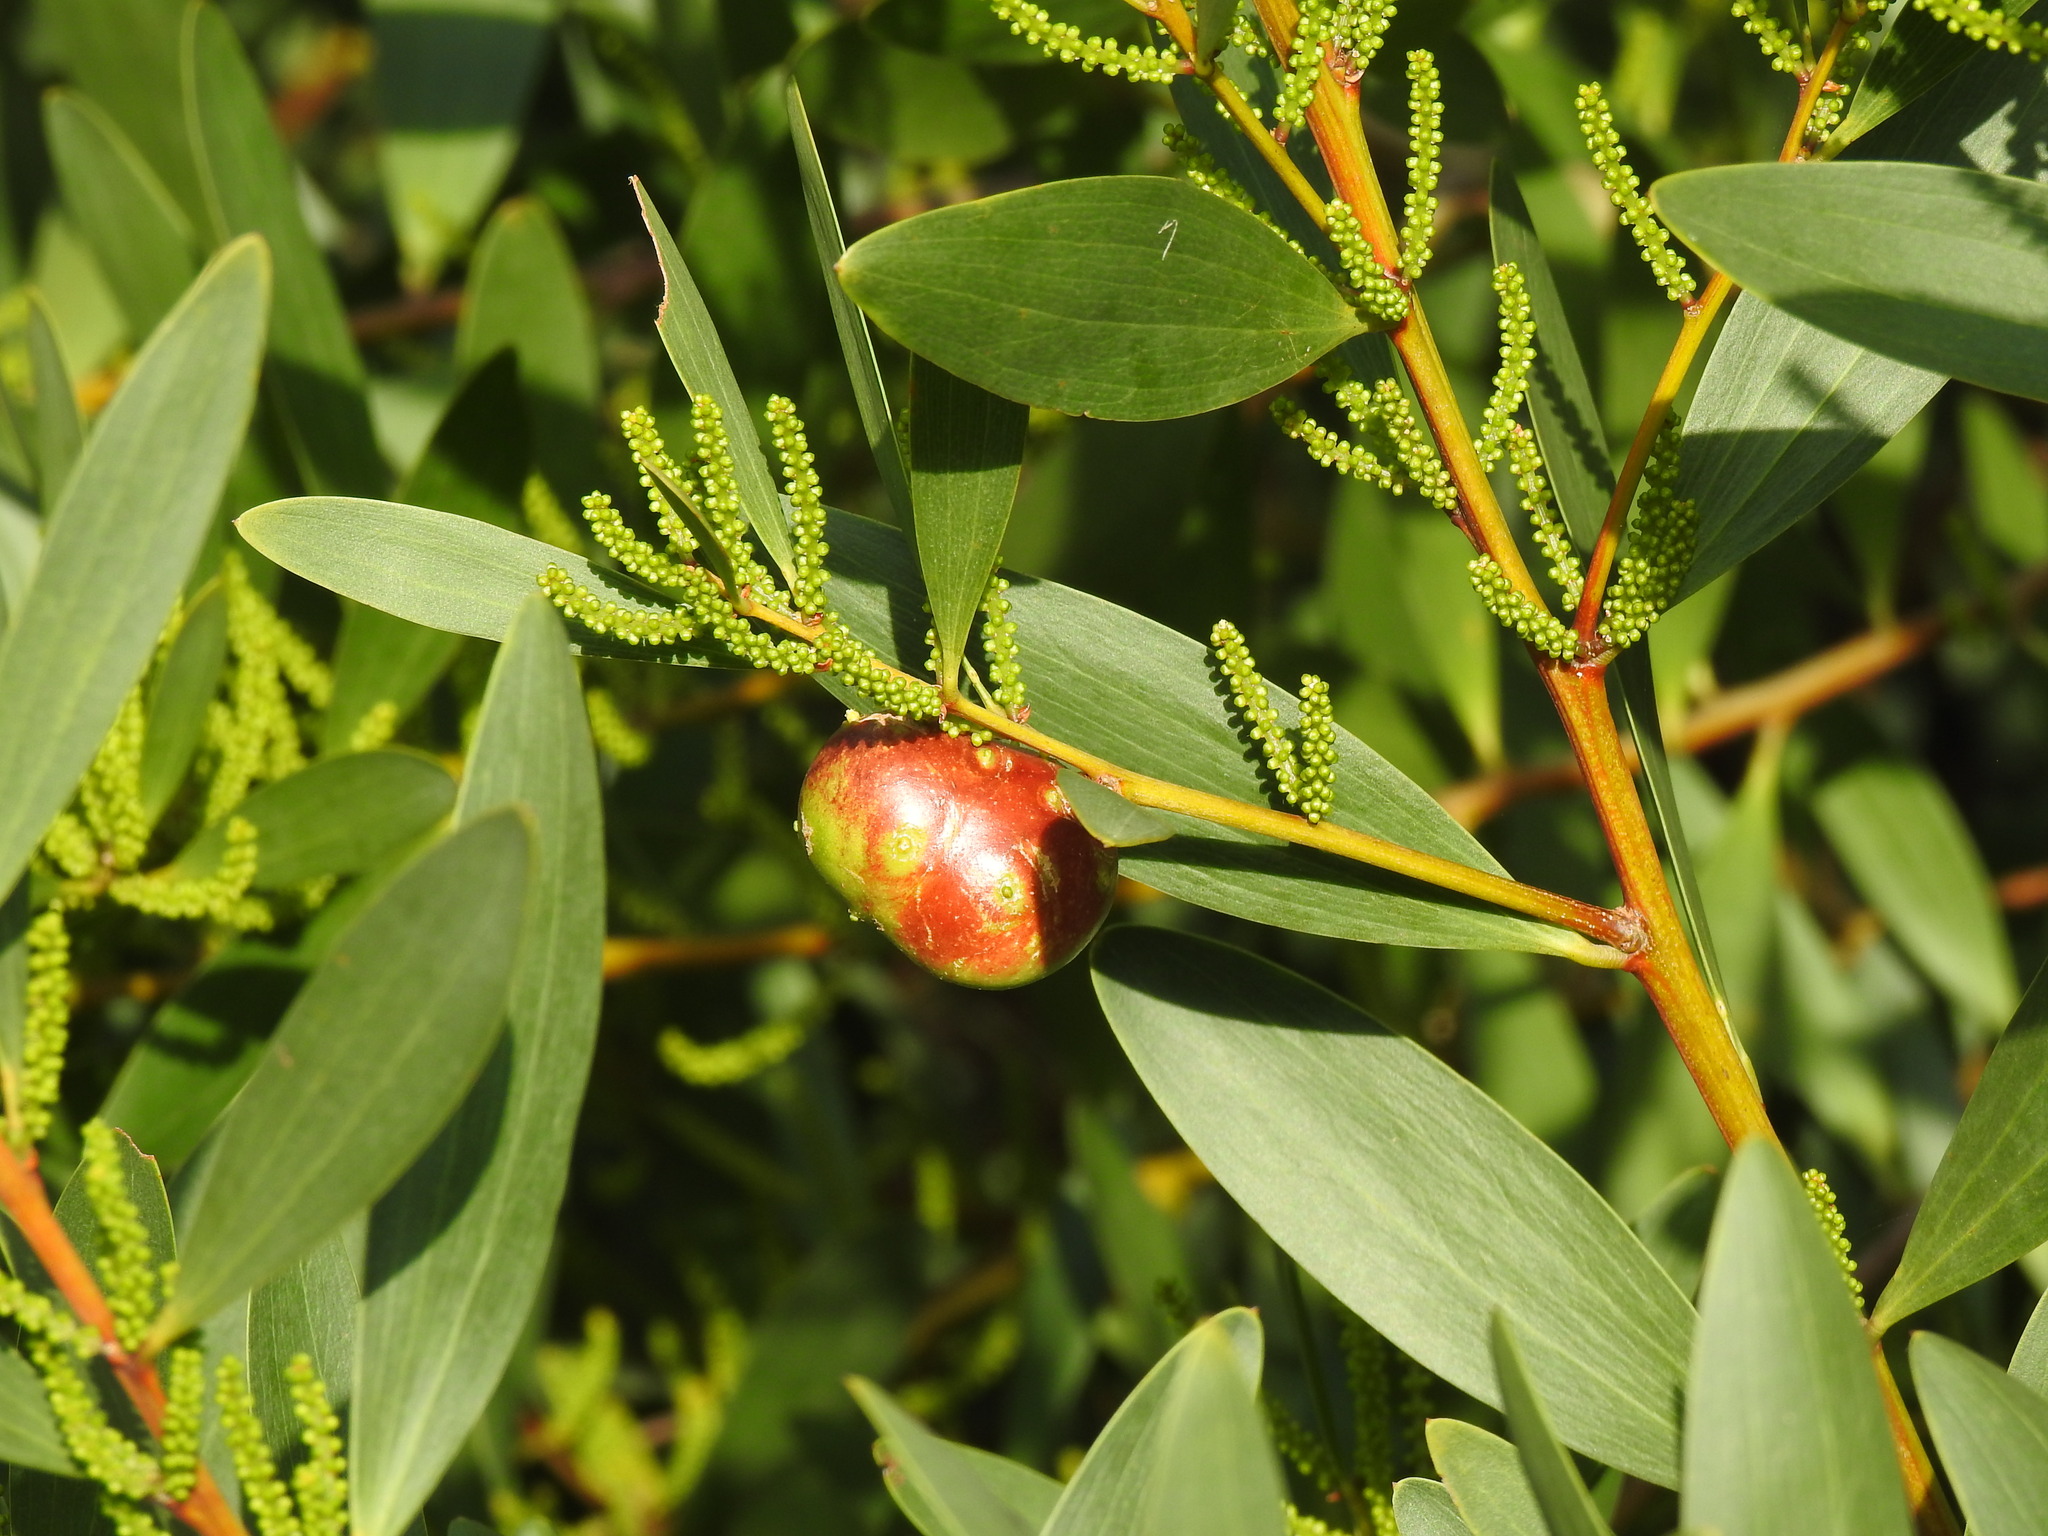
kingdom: Animalia
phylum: Arthropoda
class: Insecta
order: Hymenoptera
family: Pteromalidae
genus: Trichilogaster
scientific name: Trichilogaster acaciaelongifoliae
